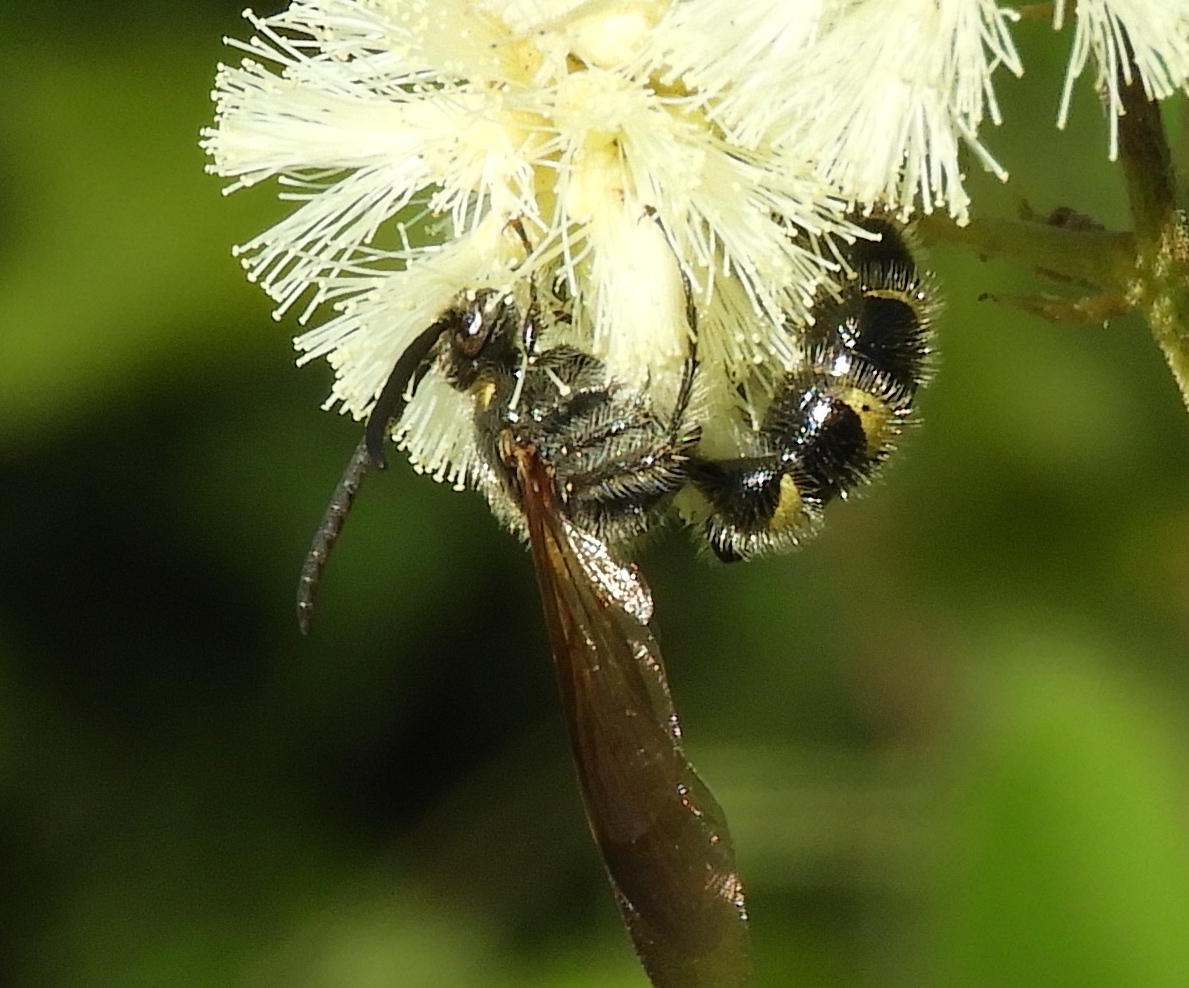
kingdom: Animalia
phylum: Arthropoda
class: Insecta
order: Hymenoptera
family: Scoliidae
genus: Dielis
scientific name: Dielis tolteca
